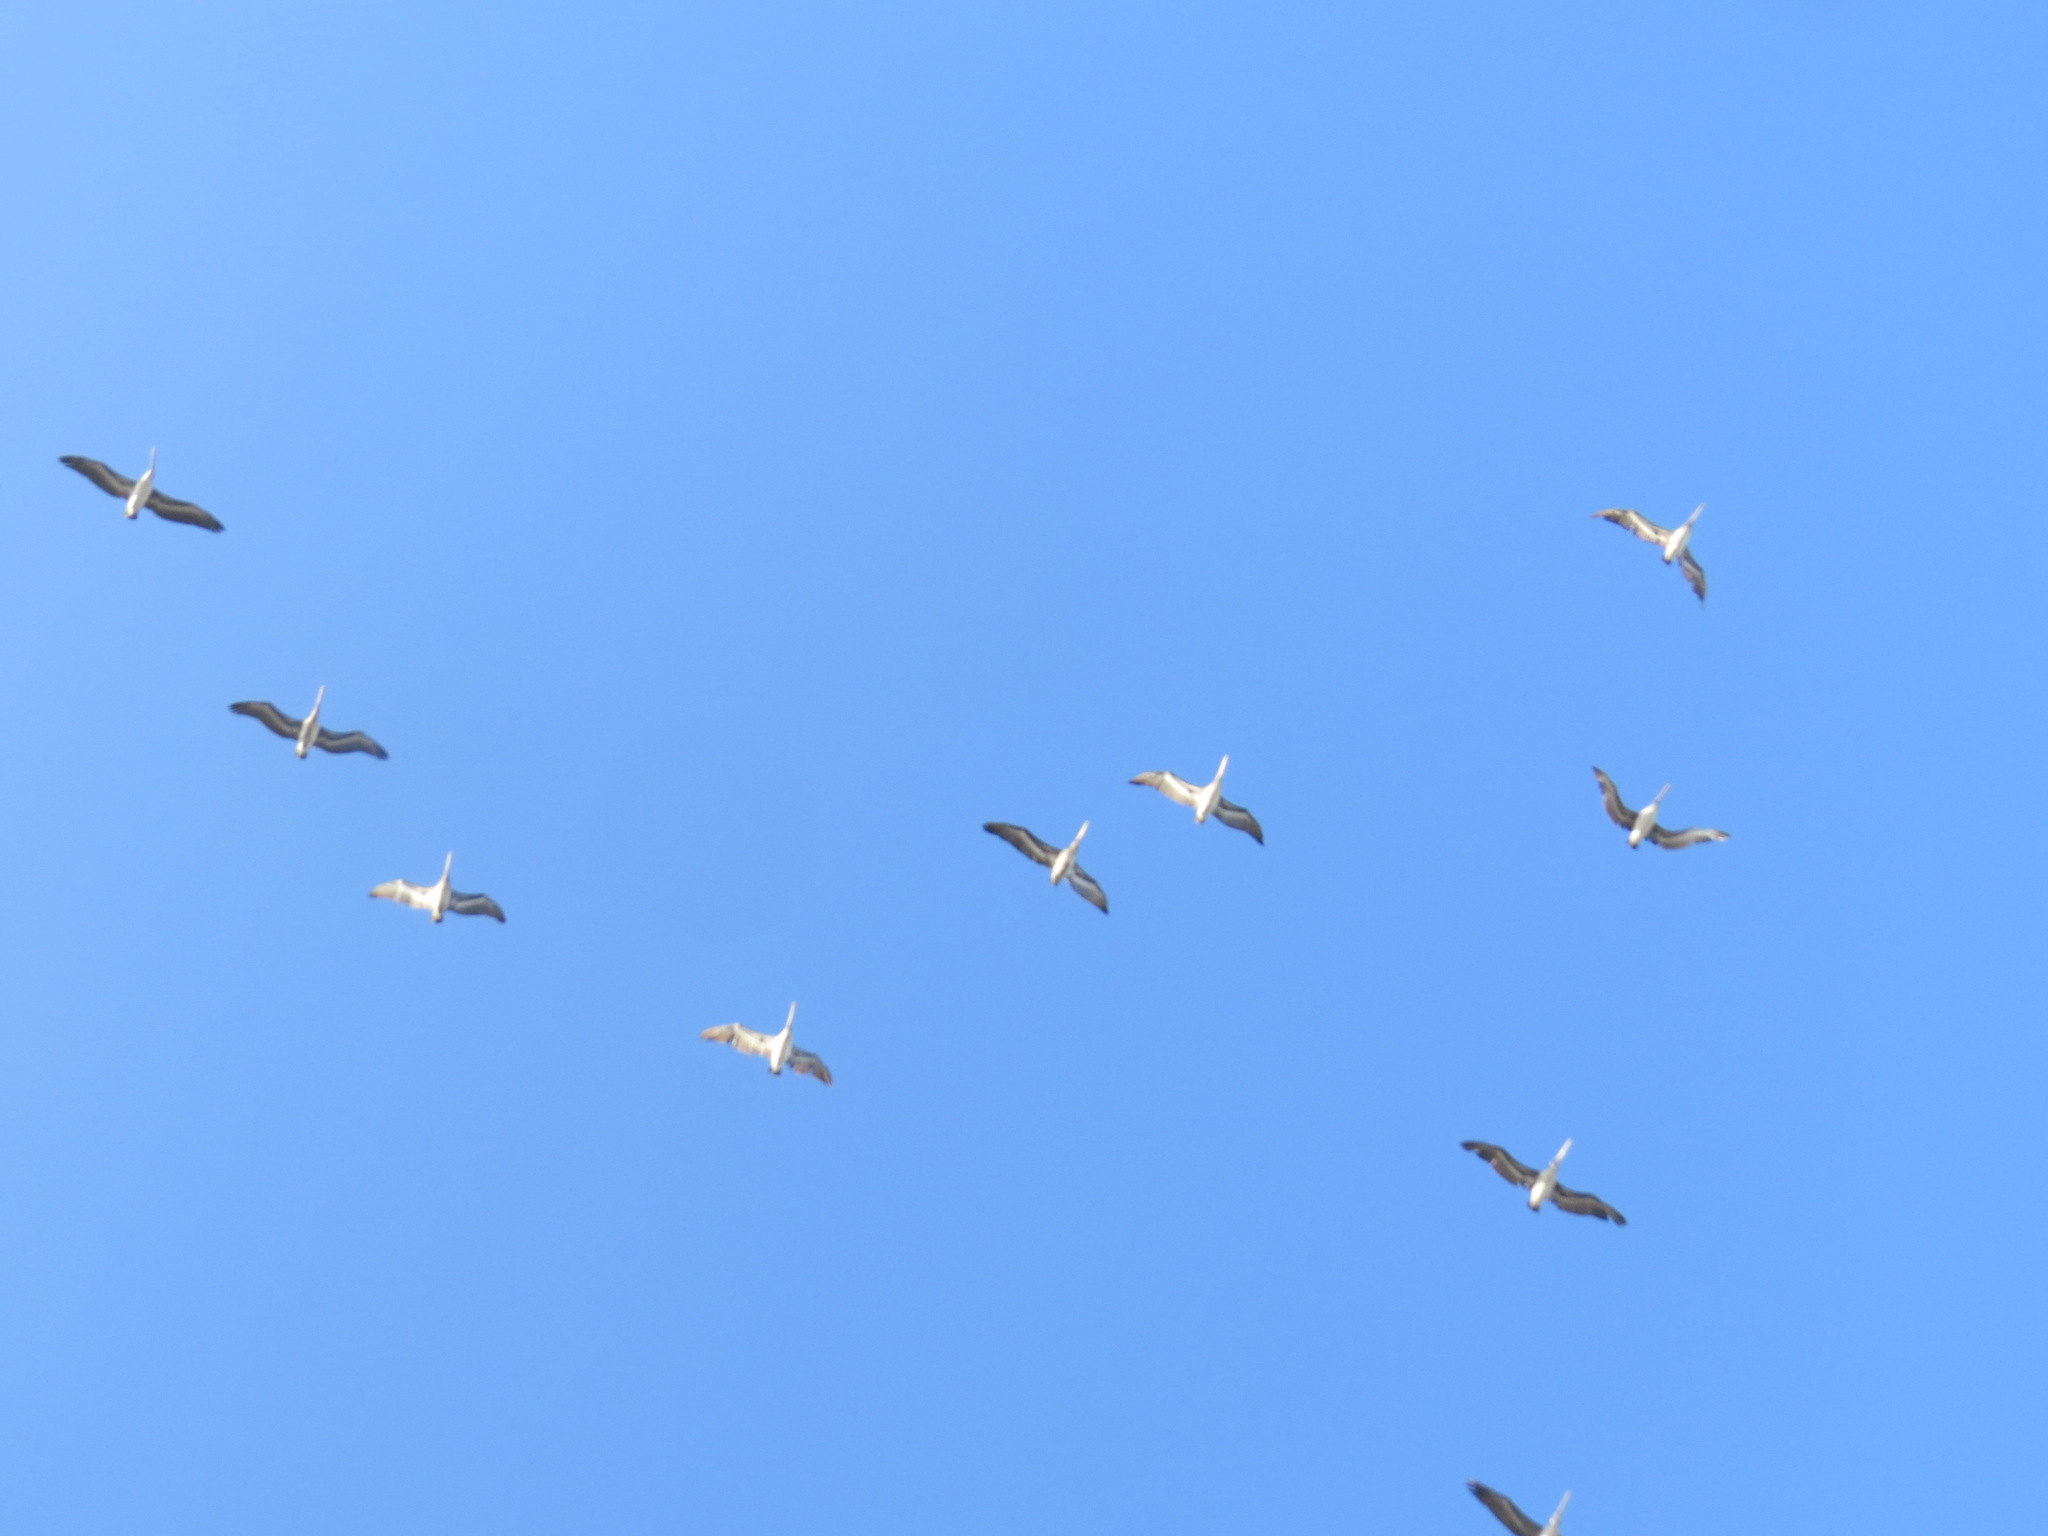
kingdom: Animalia
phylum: Chordata
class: Aves
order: Pelecaniformes
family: Pelecanidae
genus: Pelecanus
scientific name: Pelecanus occidentalis
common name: Brown pelican
